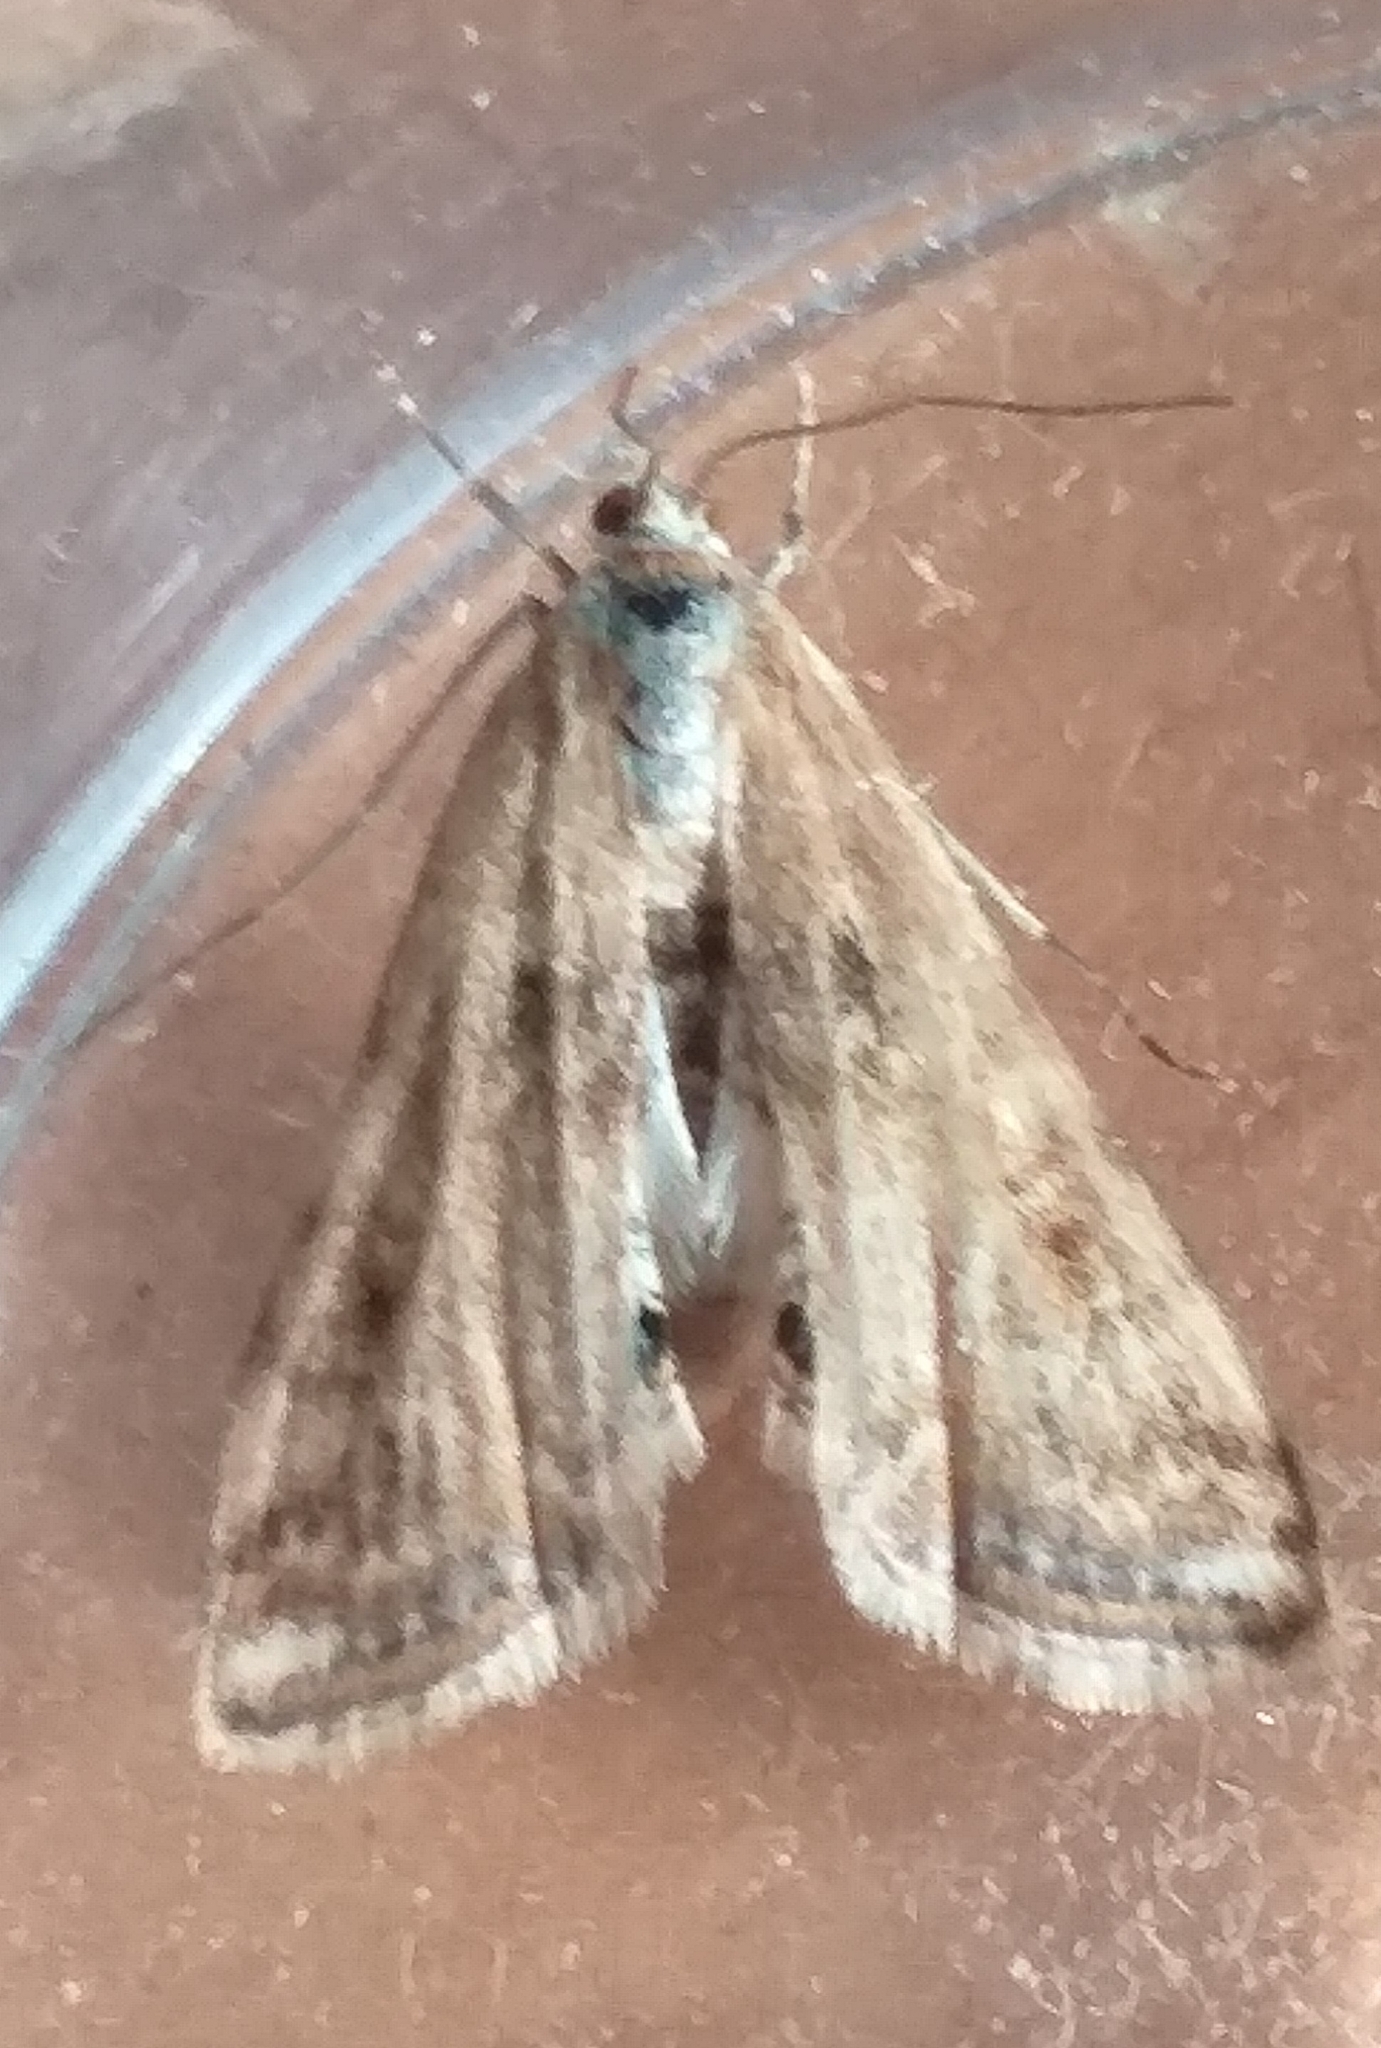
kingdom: Animalia
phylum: Arthropoda
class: Insecta
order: Lepidoptera
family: Crambidae
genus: Cataclysta
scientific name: Cataclysta lemnata
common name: Small china-mark
